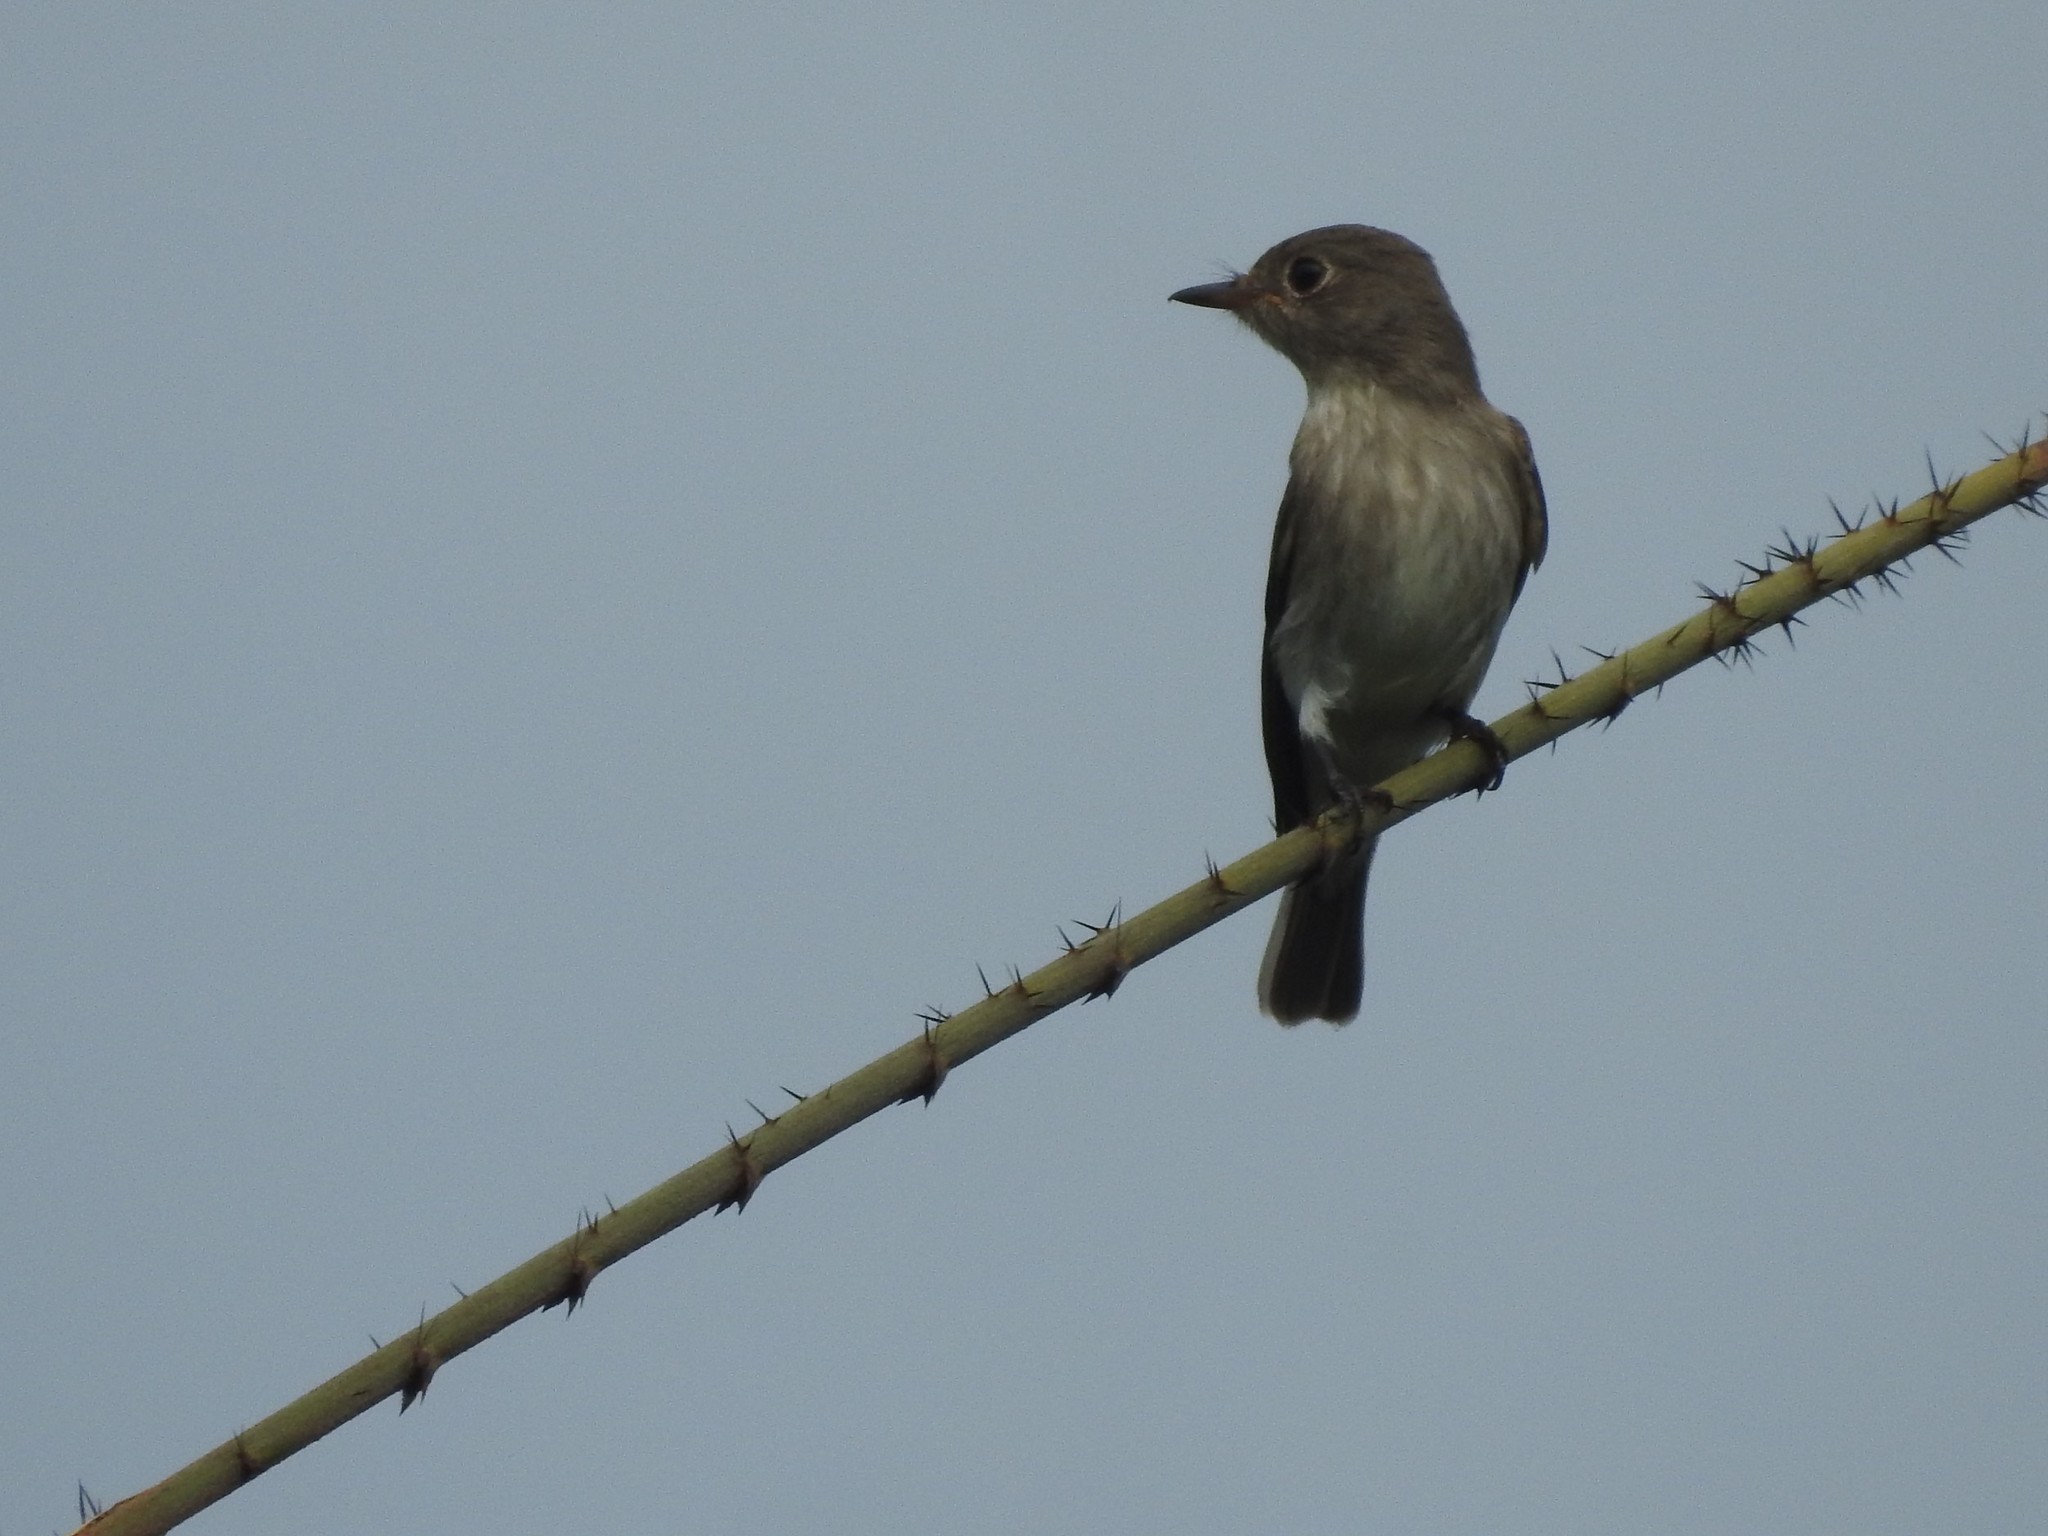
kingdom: Animalia
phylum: Chordata
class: Aves
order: Passeriformes
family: Muscicapidae
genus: Muscicapa
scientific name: Muscicapa latirostris
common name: Asian brown flycatcher
